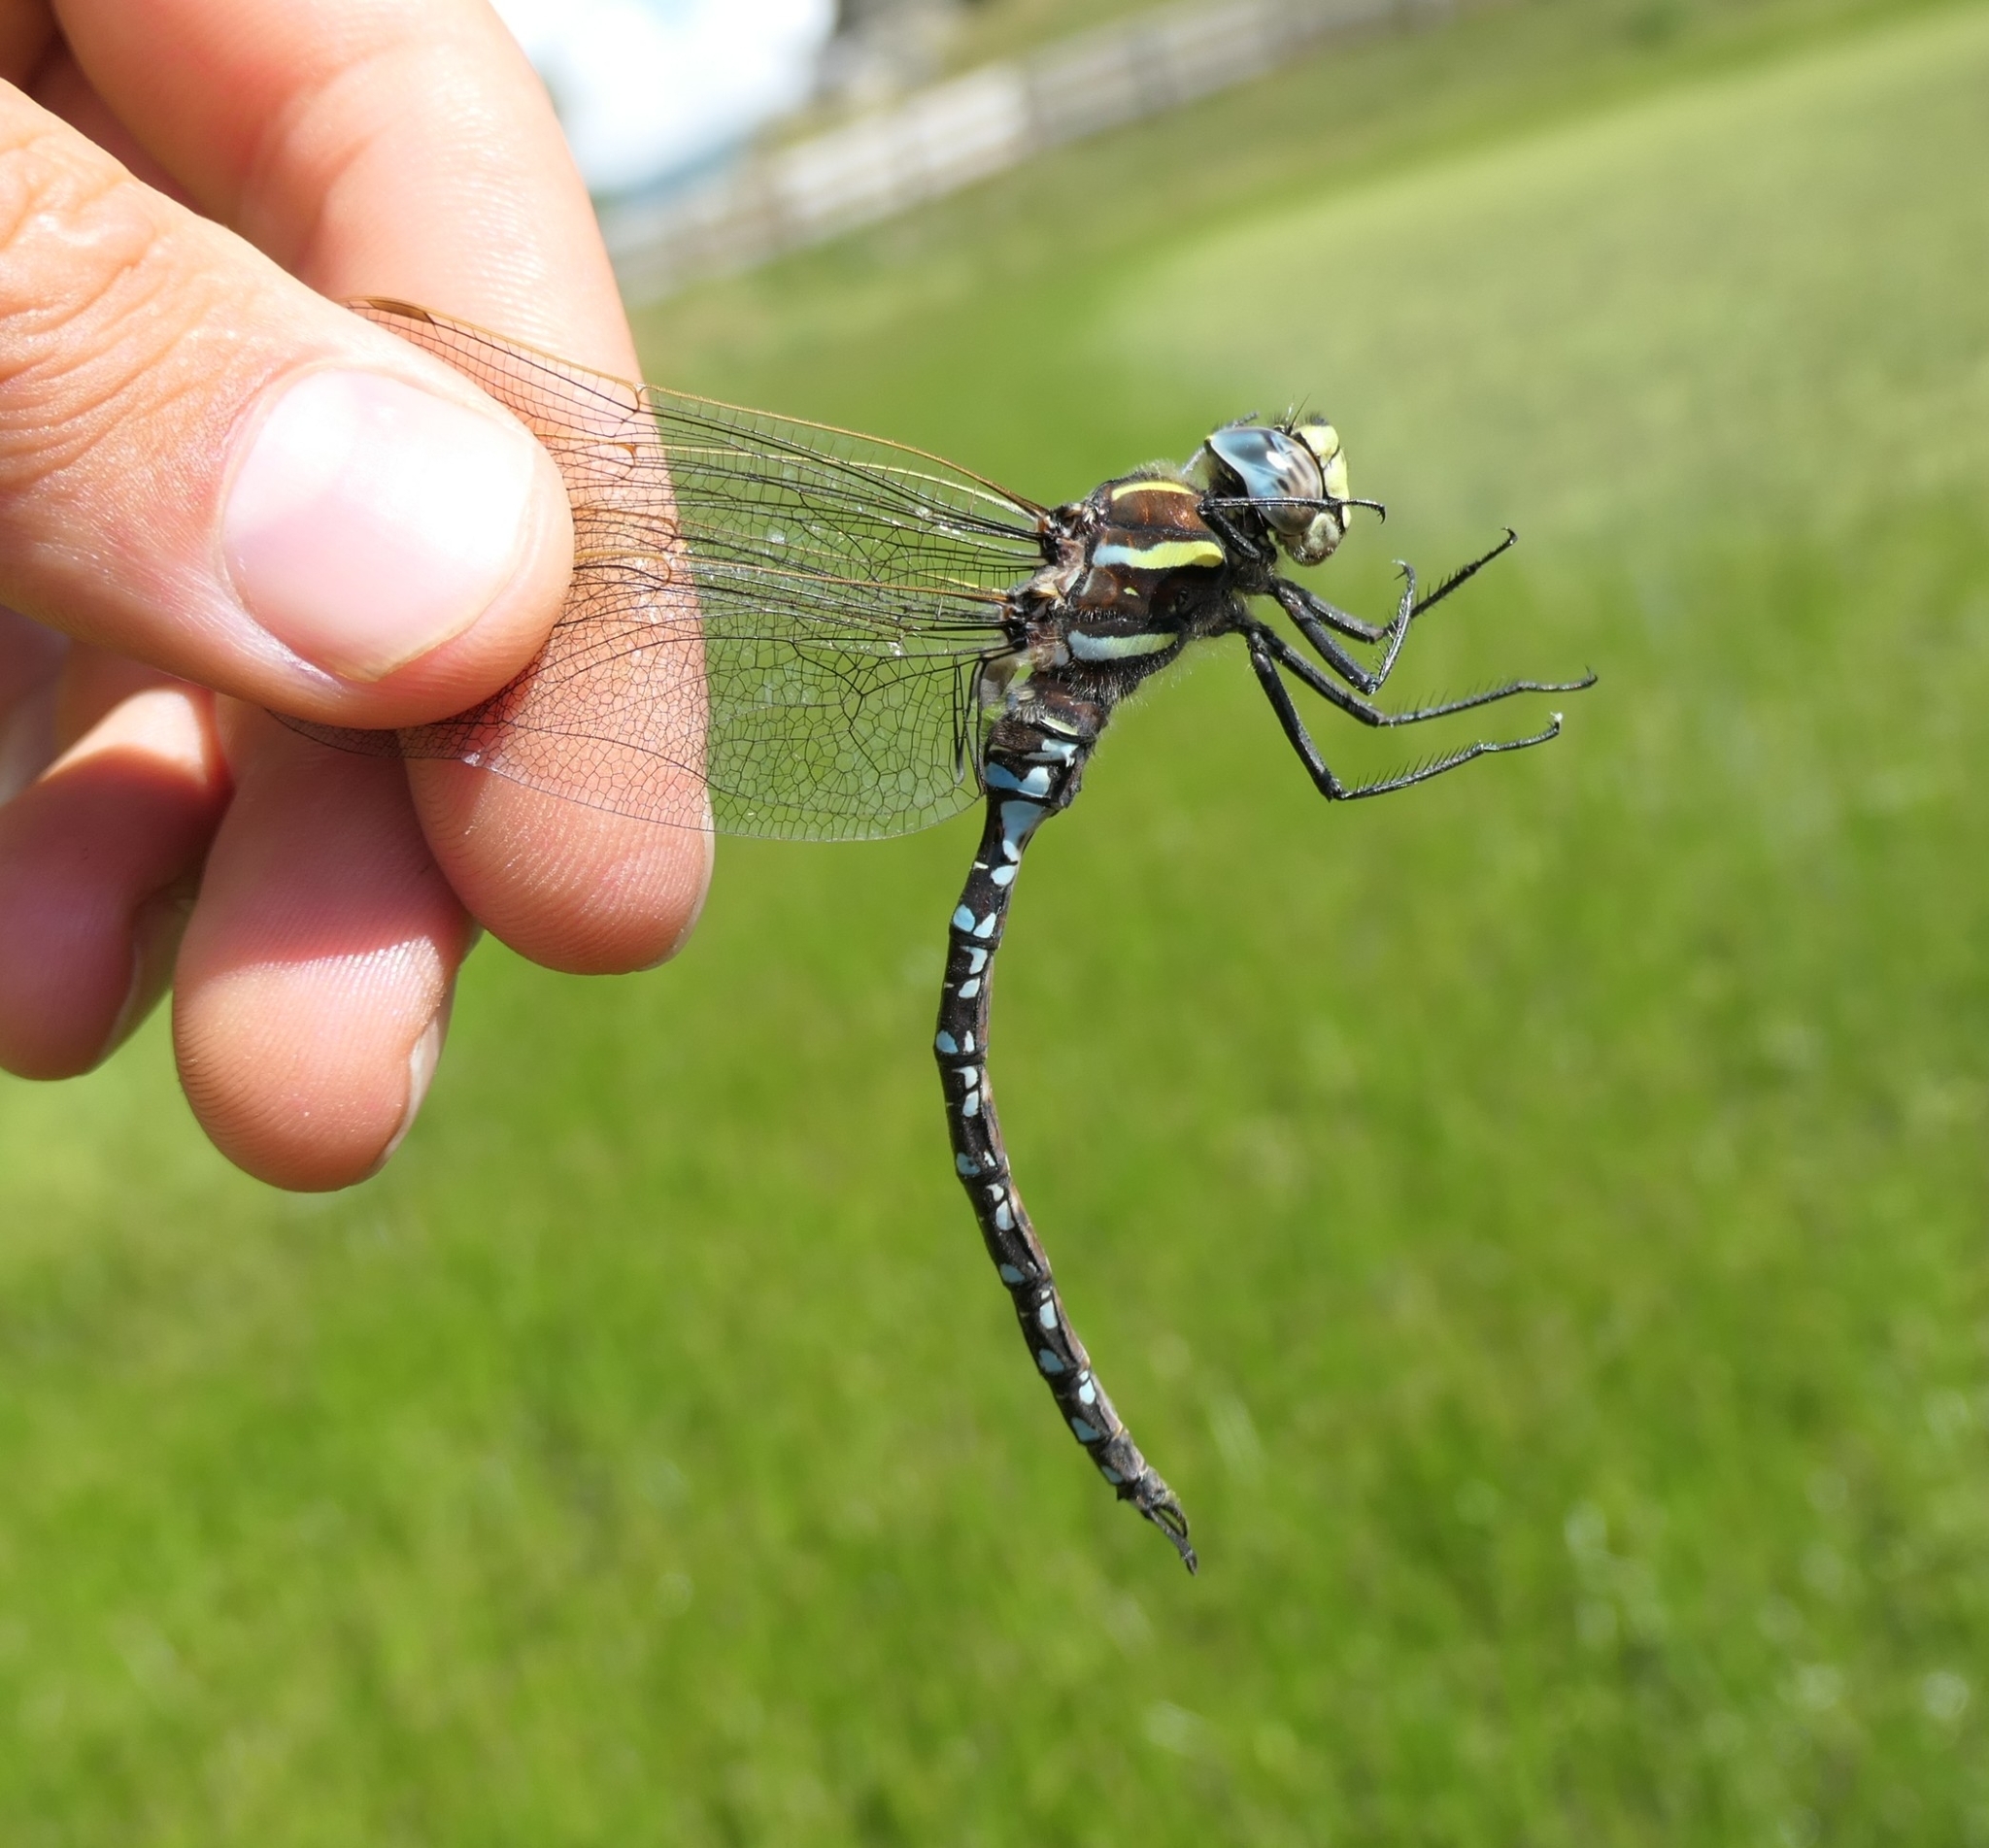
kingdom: Animalia
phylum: Arthropoda
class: Insecta
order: Odonata
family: Aeshnidae
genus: Aeshna
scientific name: Aeshna juncea
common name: Moorland hawker
